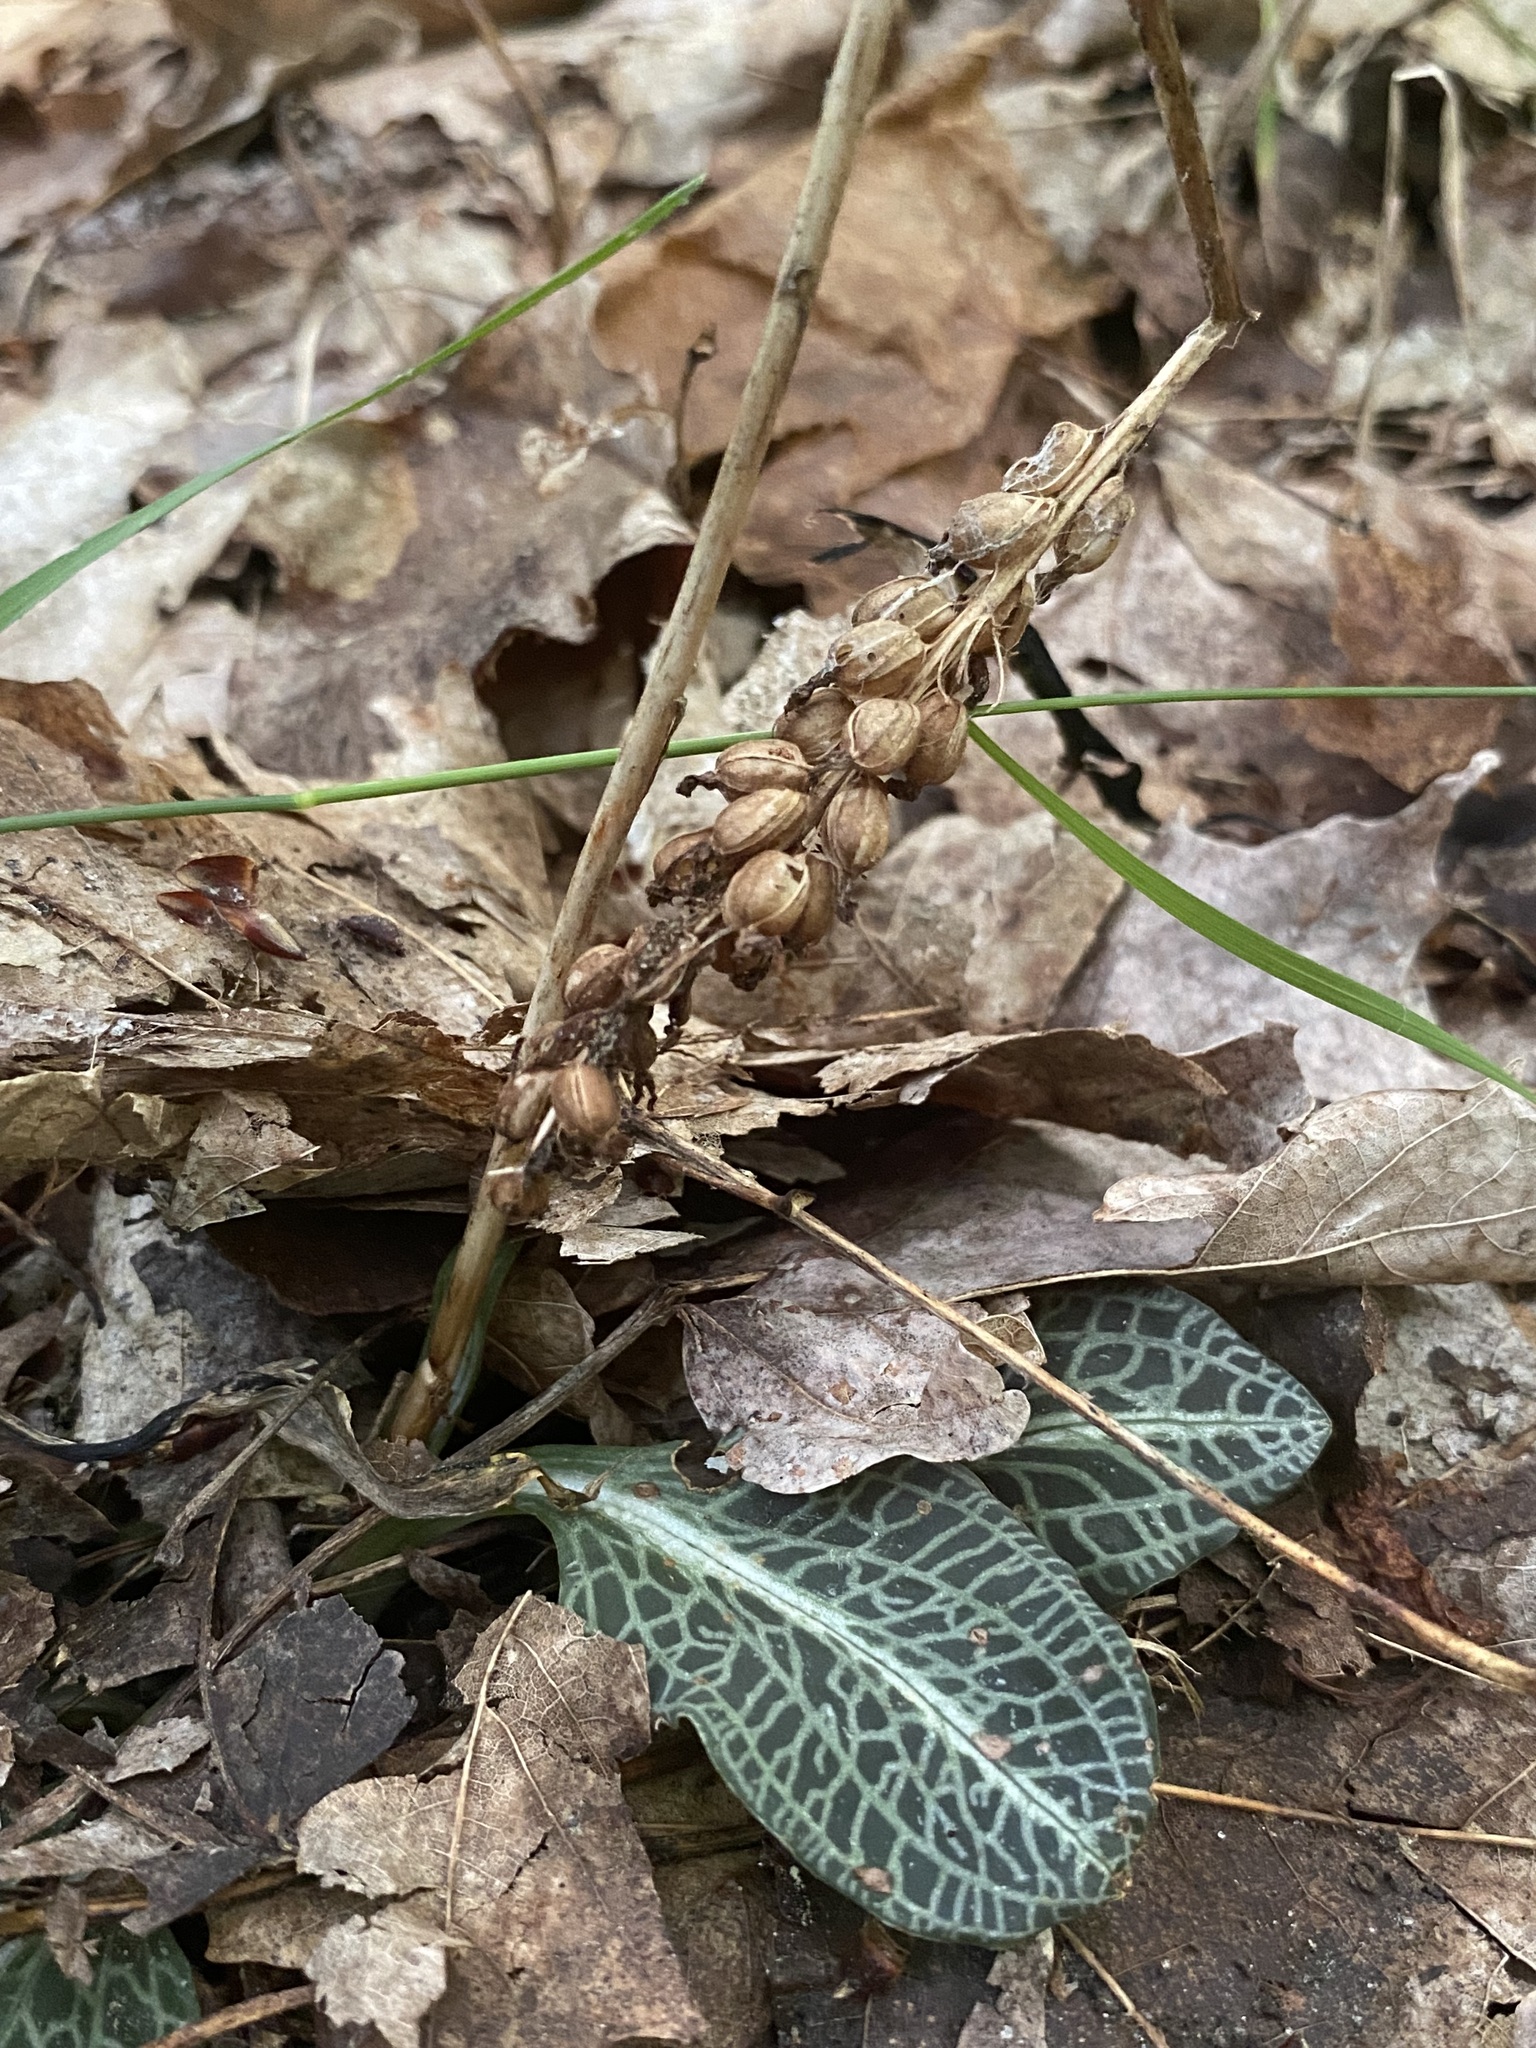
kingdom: Plantae
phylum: Tracheophyta
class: Liliopsida
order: Asparagales
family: Orchidaceae
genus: Goodyera
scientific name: Goodyera pubescens
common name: Downy rattlesnake-plantain
